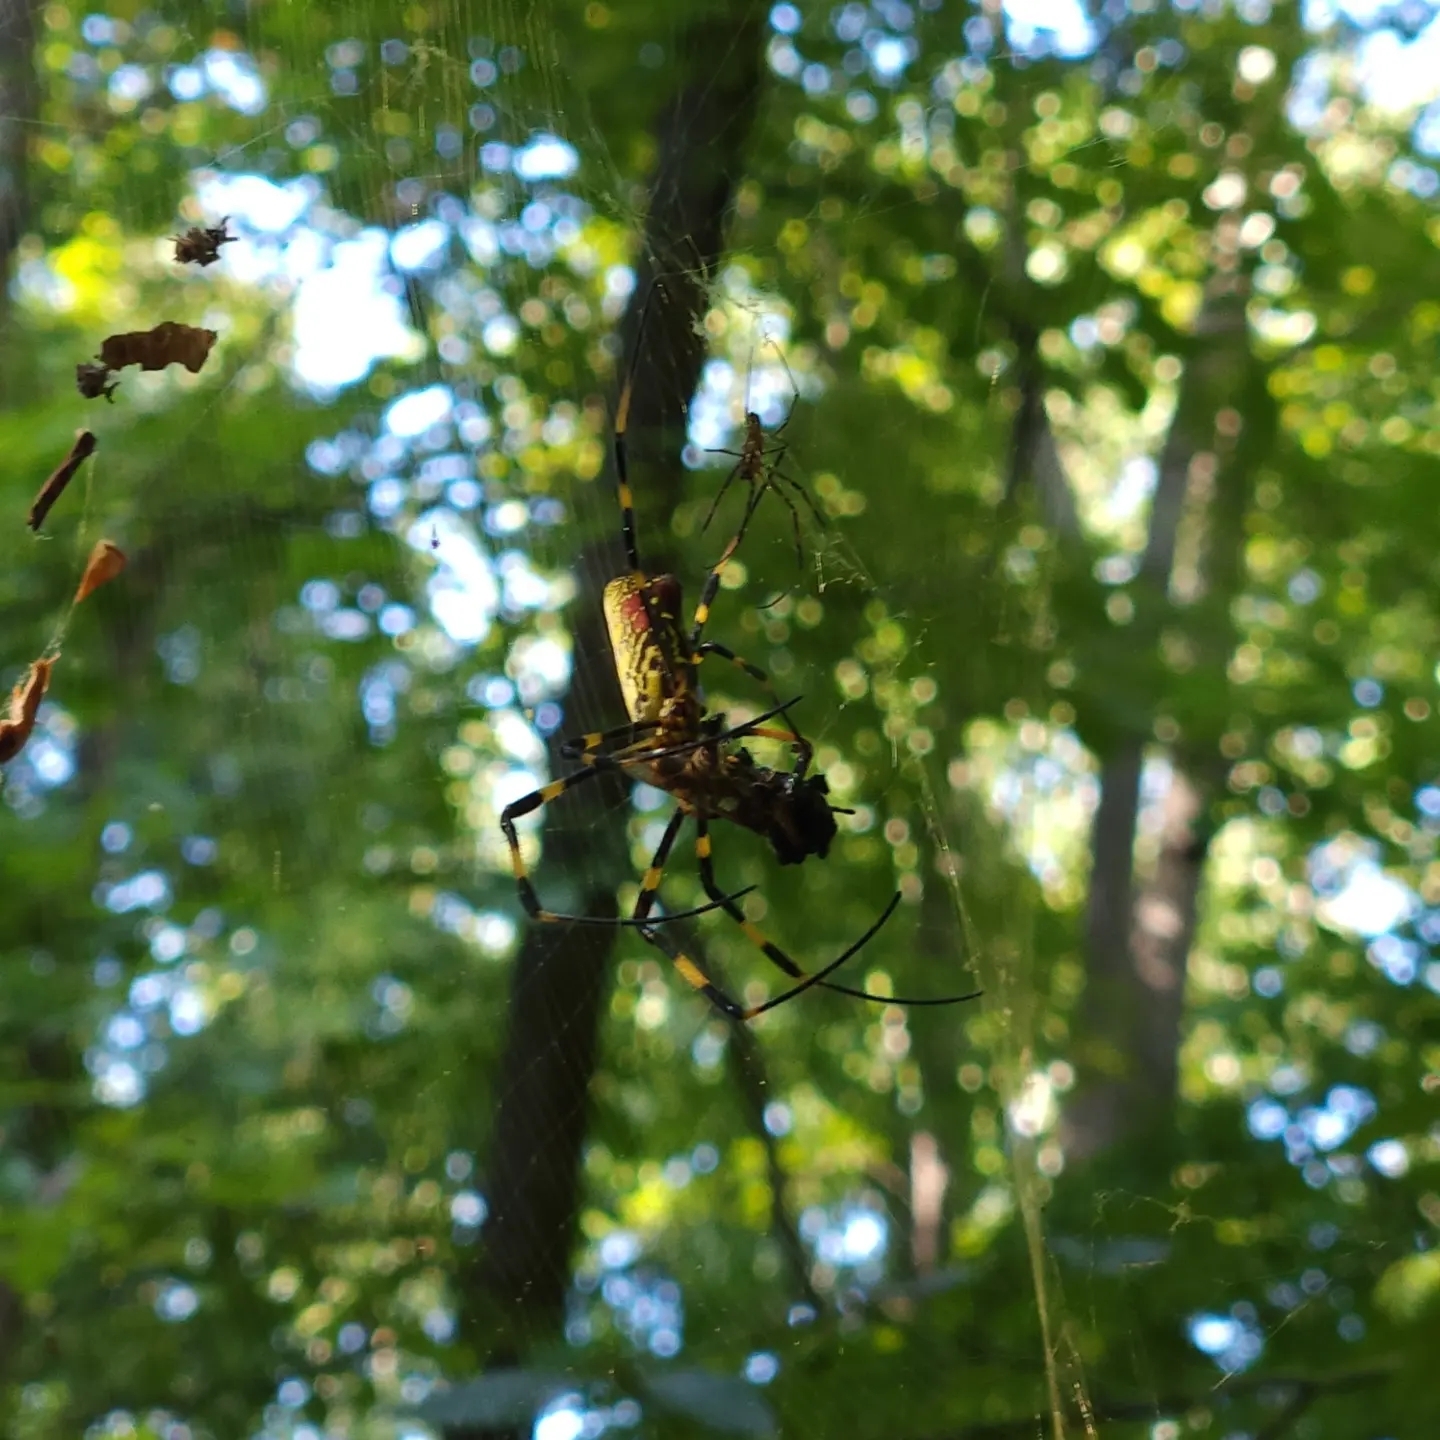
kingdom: Animalia
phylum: Arthropoda
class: Arachnida
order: Araneae
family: Araneidae
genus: Trichonephila
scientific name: Trichonephila clavata
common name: Jorō spider
